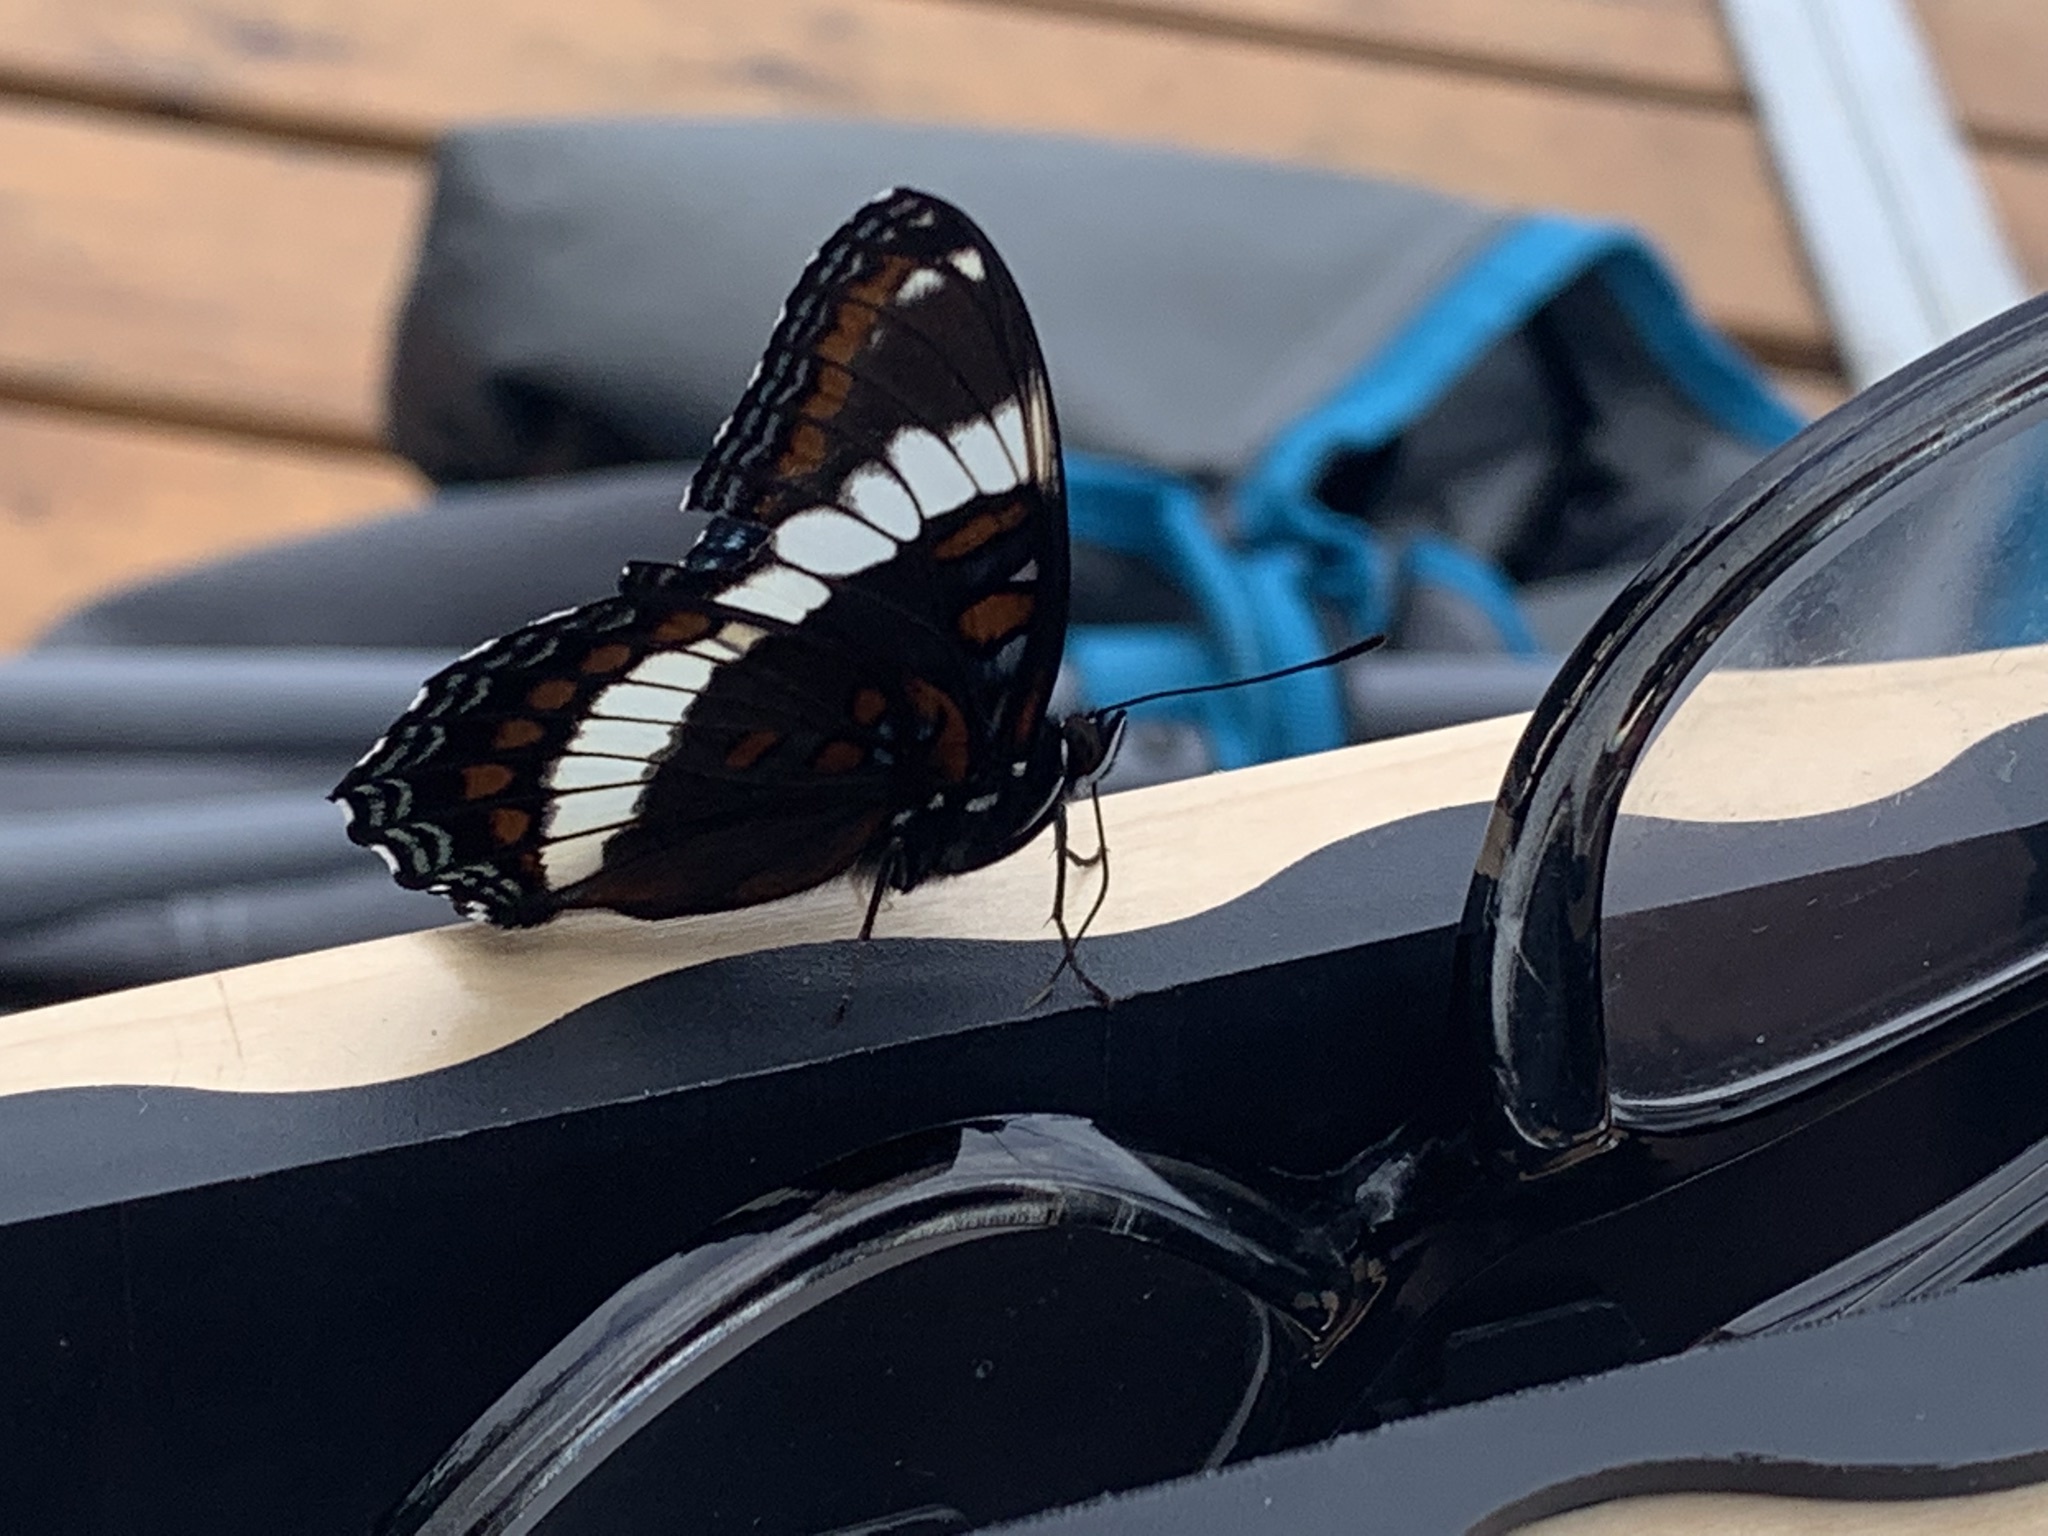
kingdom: Animalia
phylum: Arthropoda
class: Insecta
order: Lepidoptera
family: Nymphalidae
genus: Limenitis
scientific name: Limenitis arthemis
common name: Red-spotted admiral
